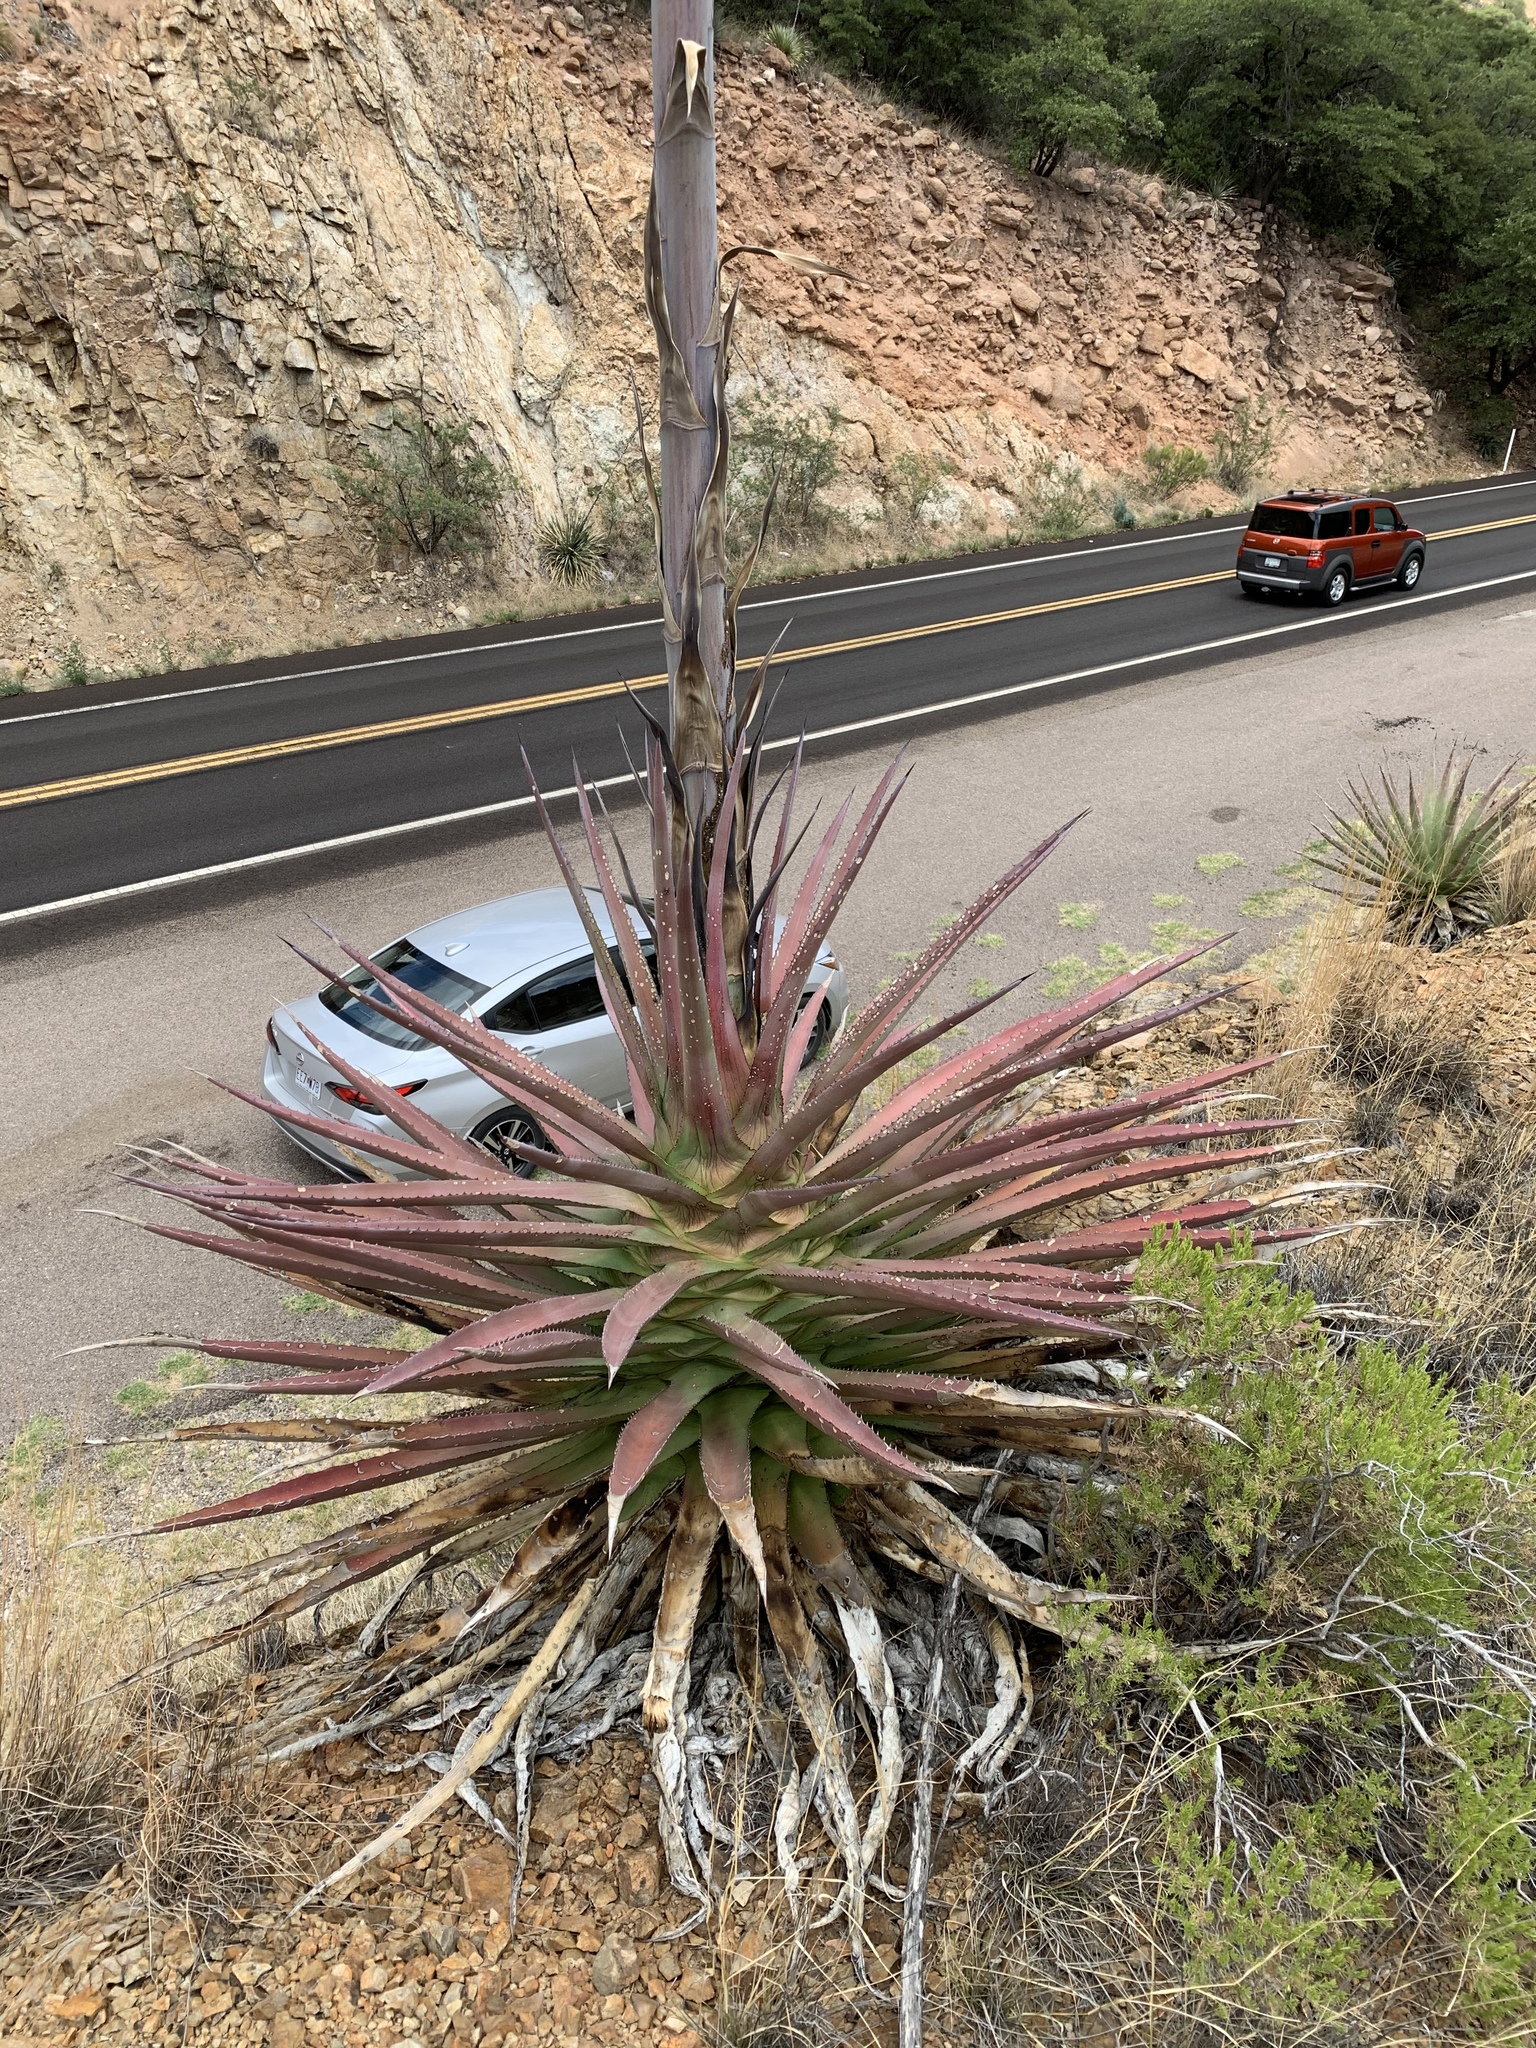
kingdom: Plantae
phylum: Tracheophyta
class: Liliopsida
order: Asparagales
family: Asparagaceae
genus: Agave
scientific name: Agave palmeri
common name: Palmer agave
